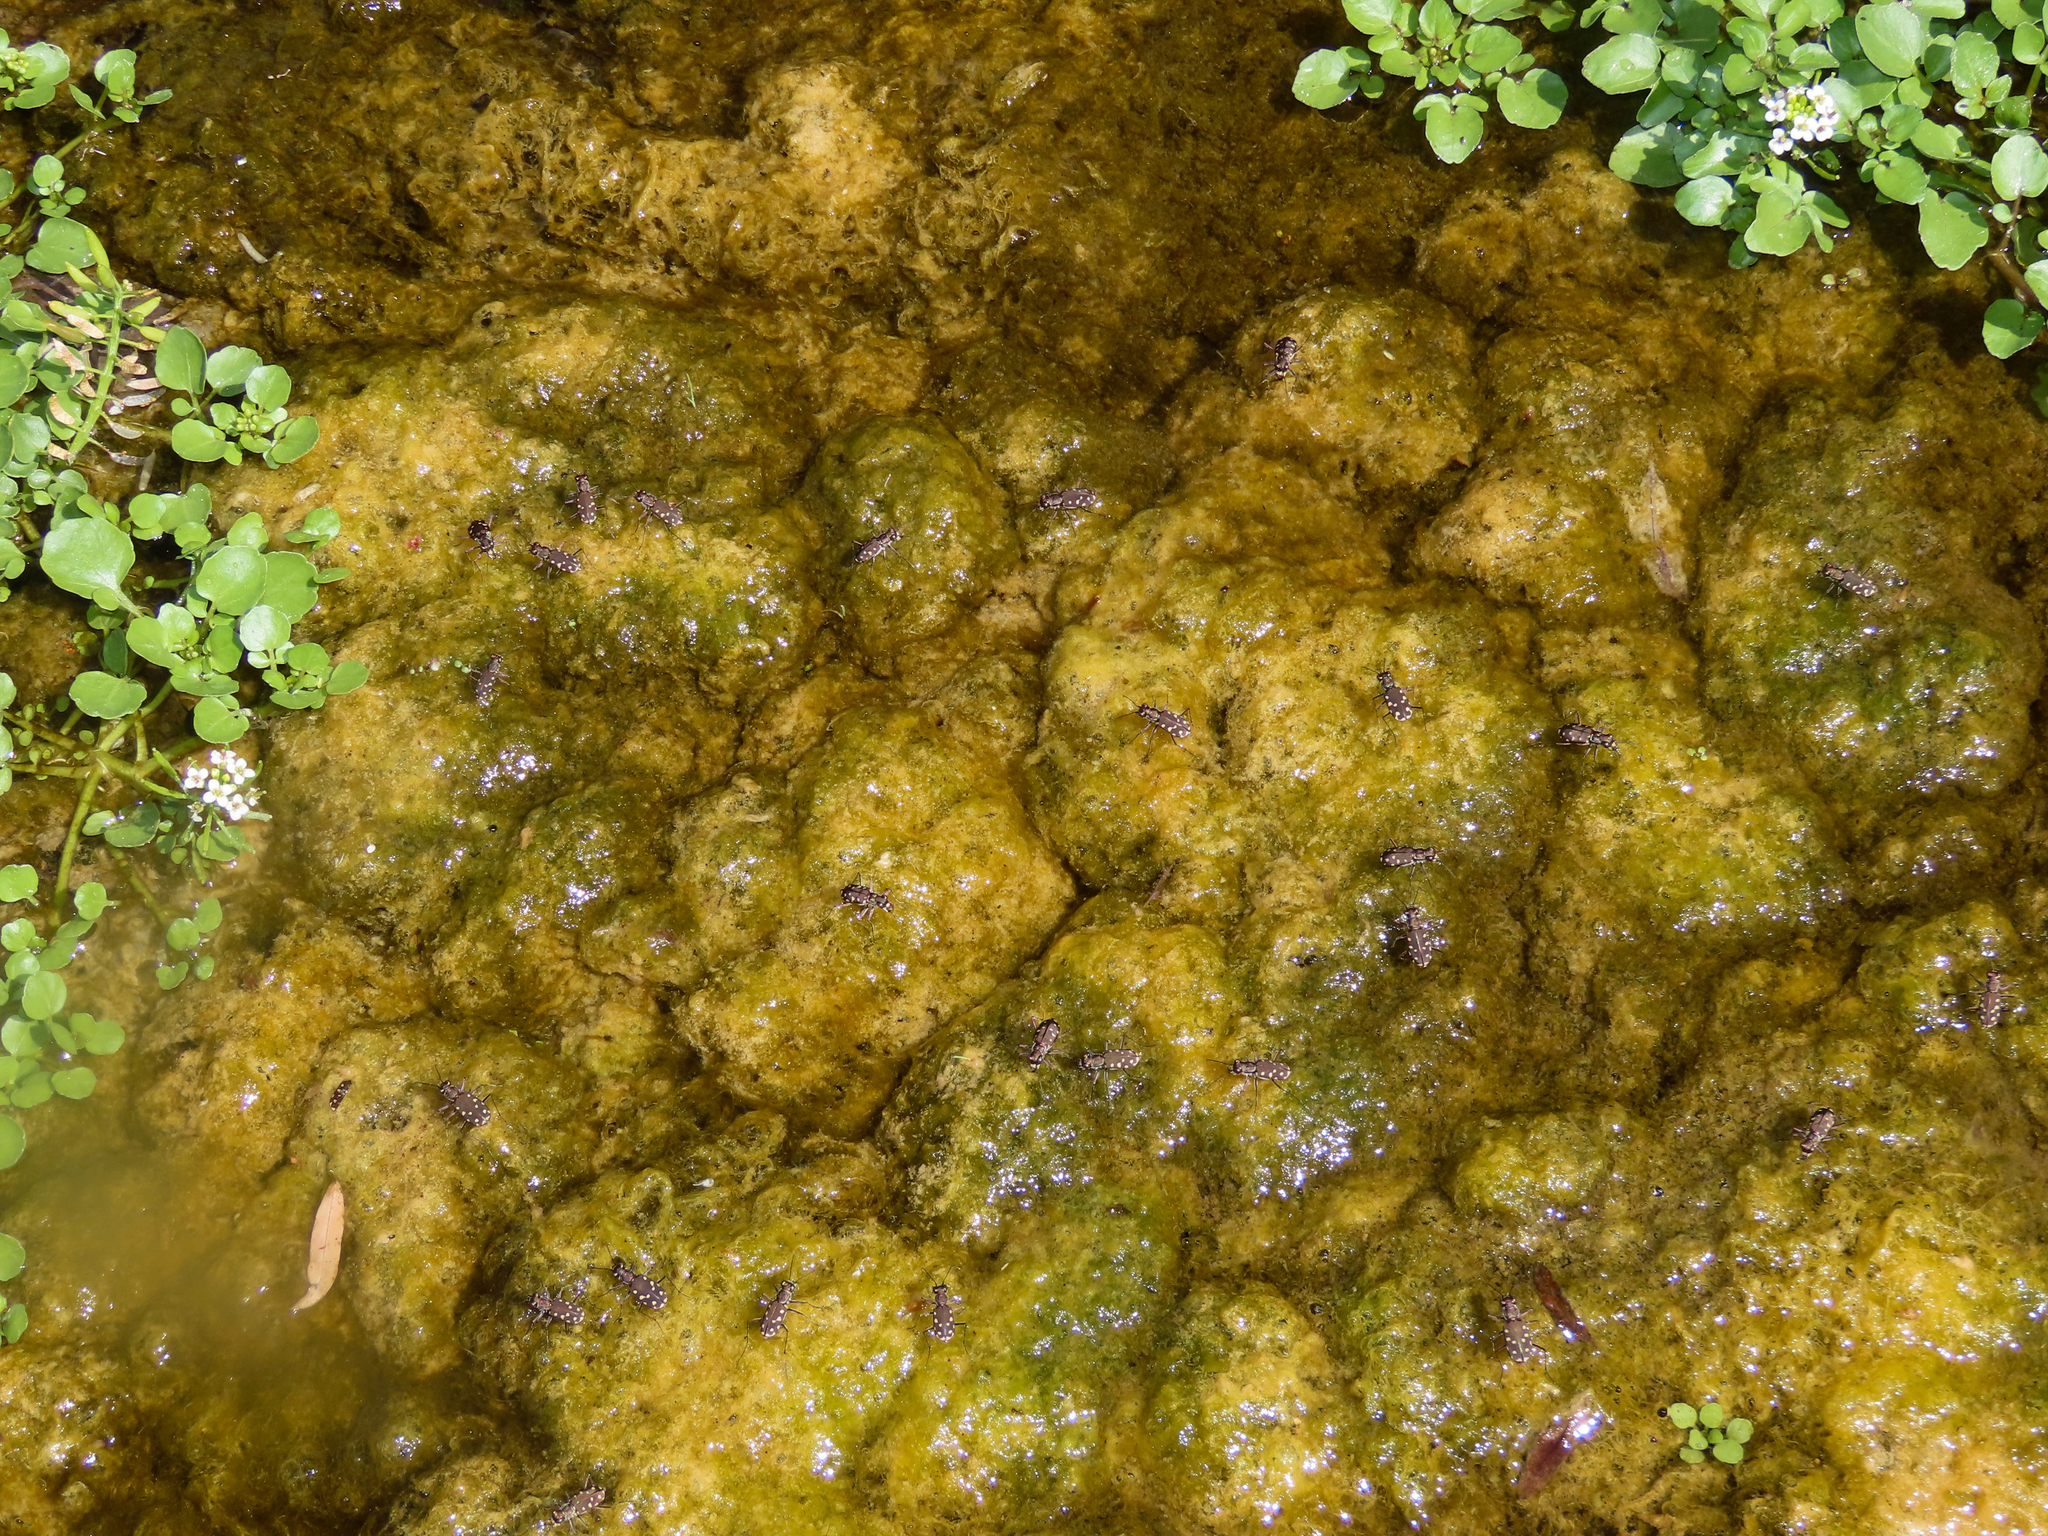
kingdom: Animalia
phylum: Arthropoda
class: Insecta
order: Coleoptera
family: Carabidae
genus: Cicindela
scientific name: Cicindela sedecimpunctata
